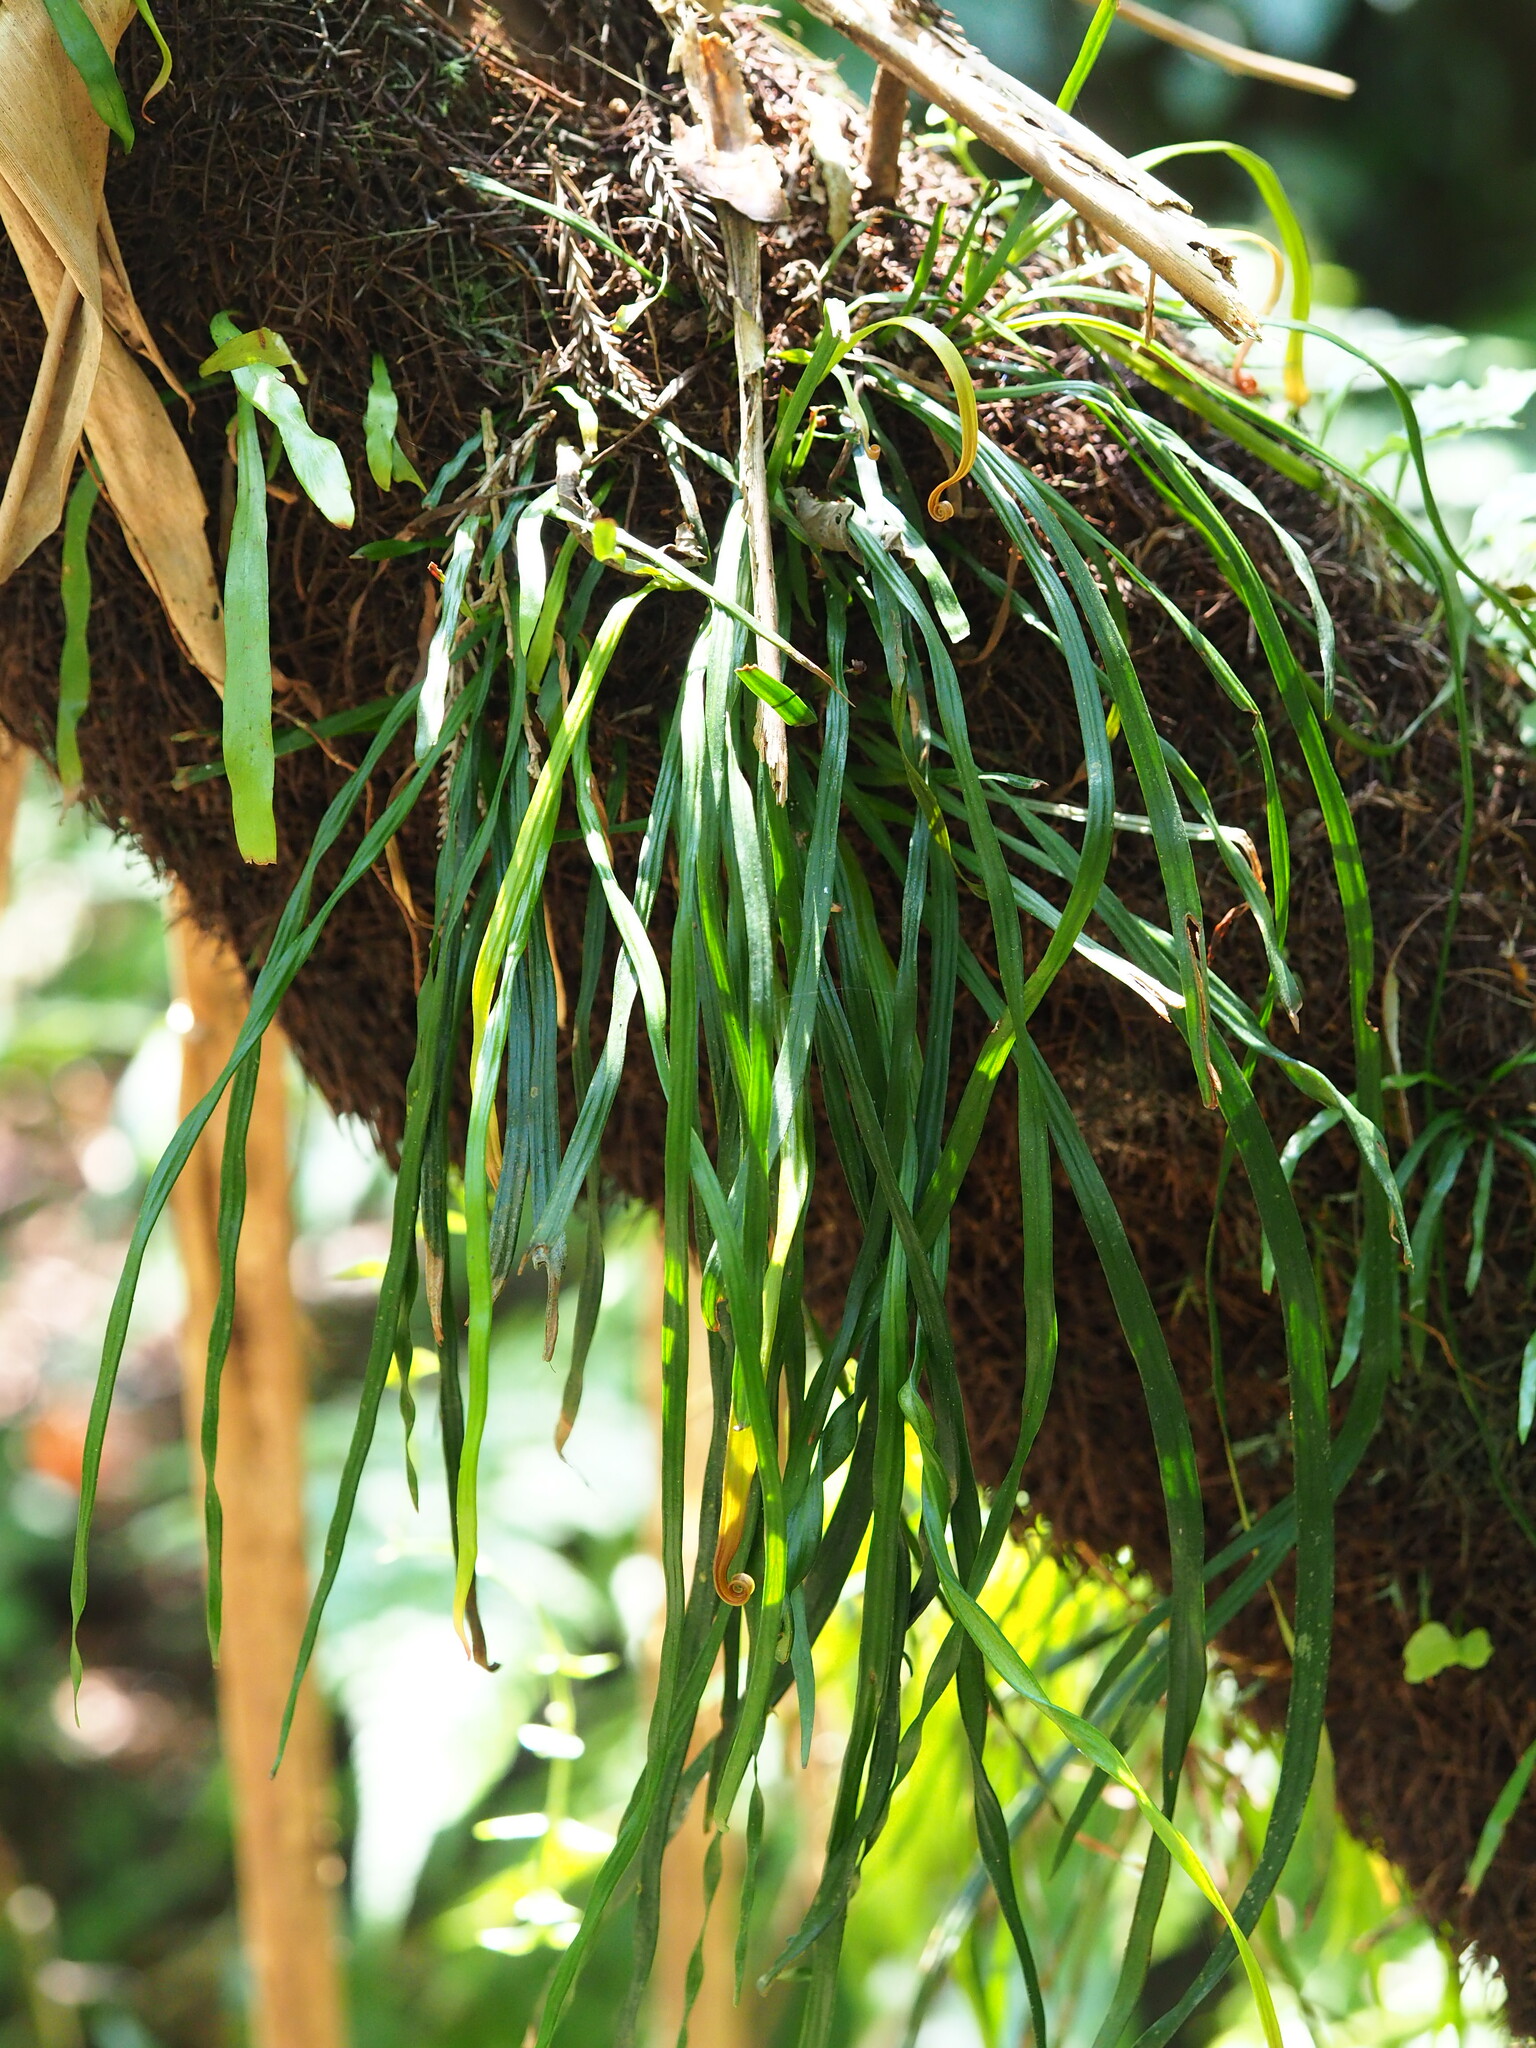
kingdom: Plantae
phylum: Tracheophyta
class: Polypodiopsida
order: Polypodiales
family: Pteridaceae
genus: Haplopteris
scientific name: Haplopteris anguste-elongata
